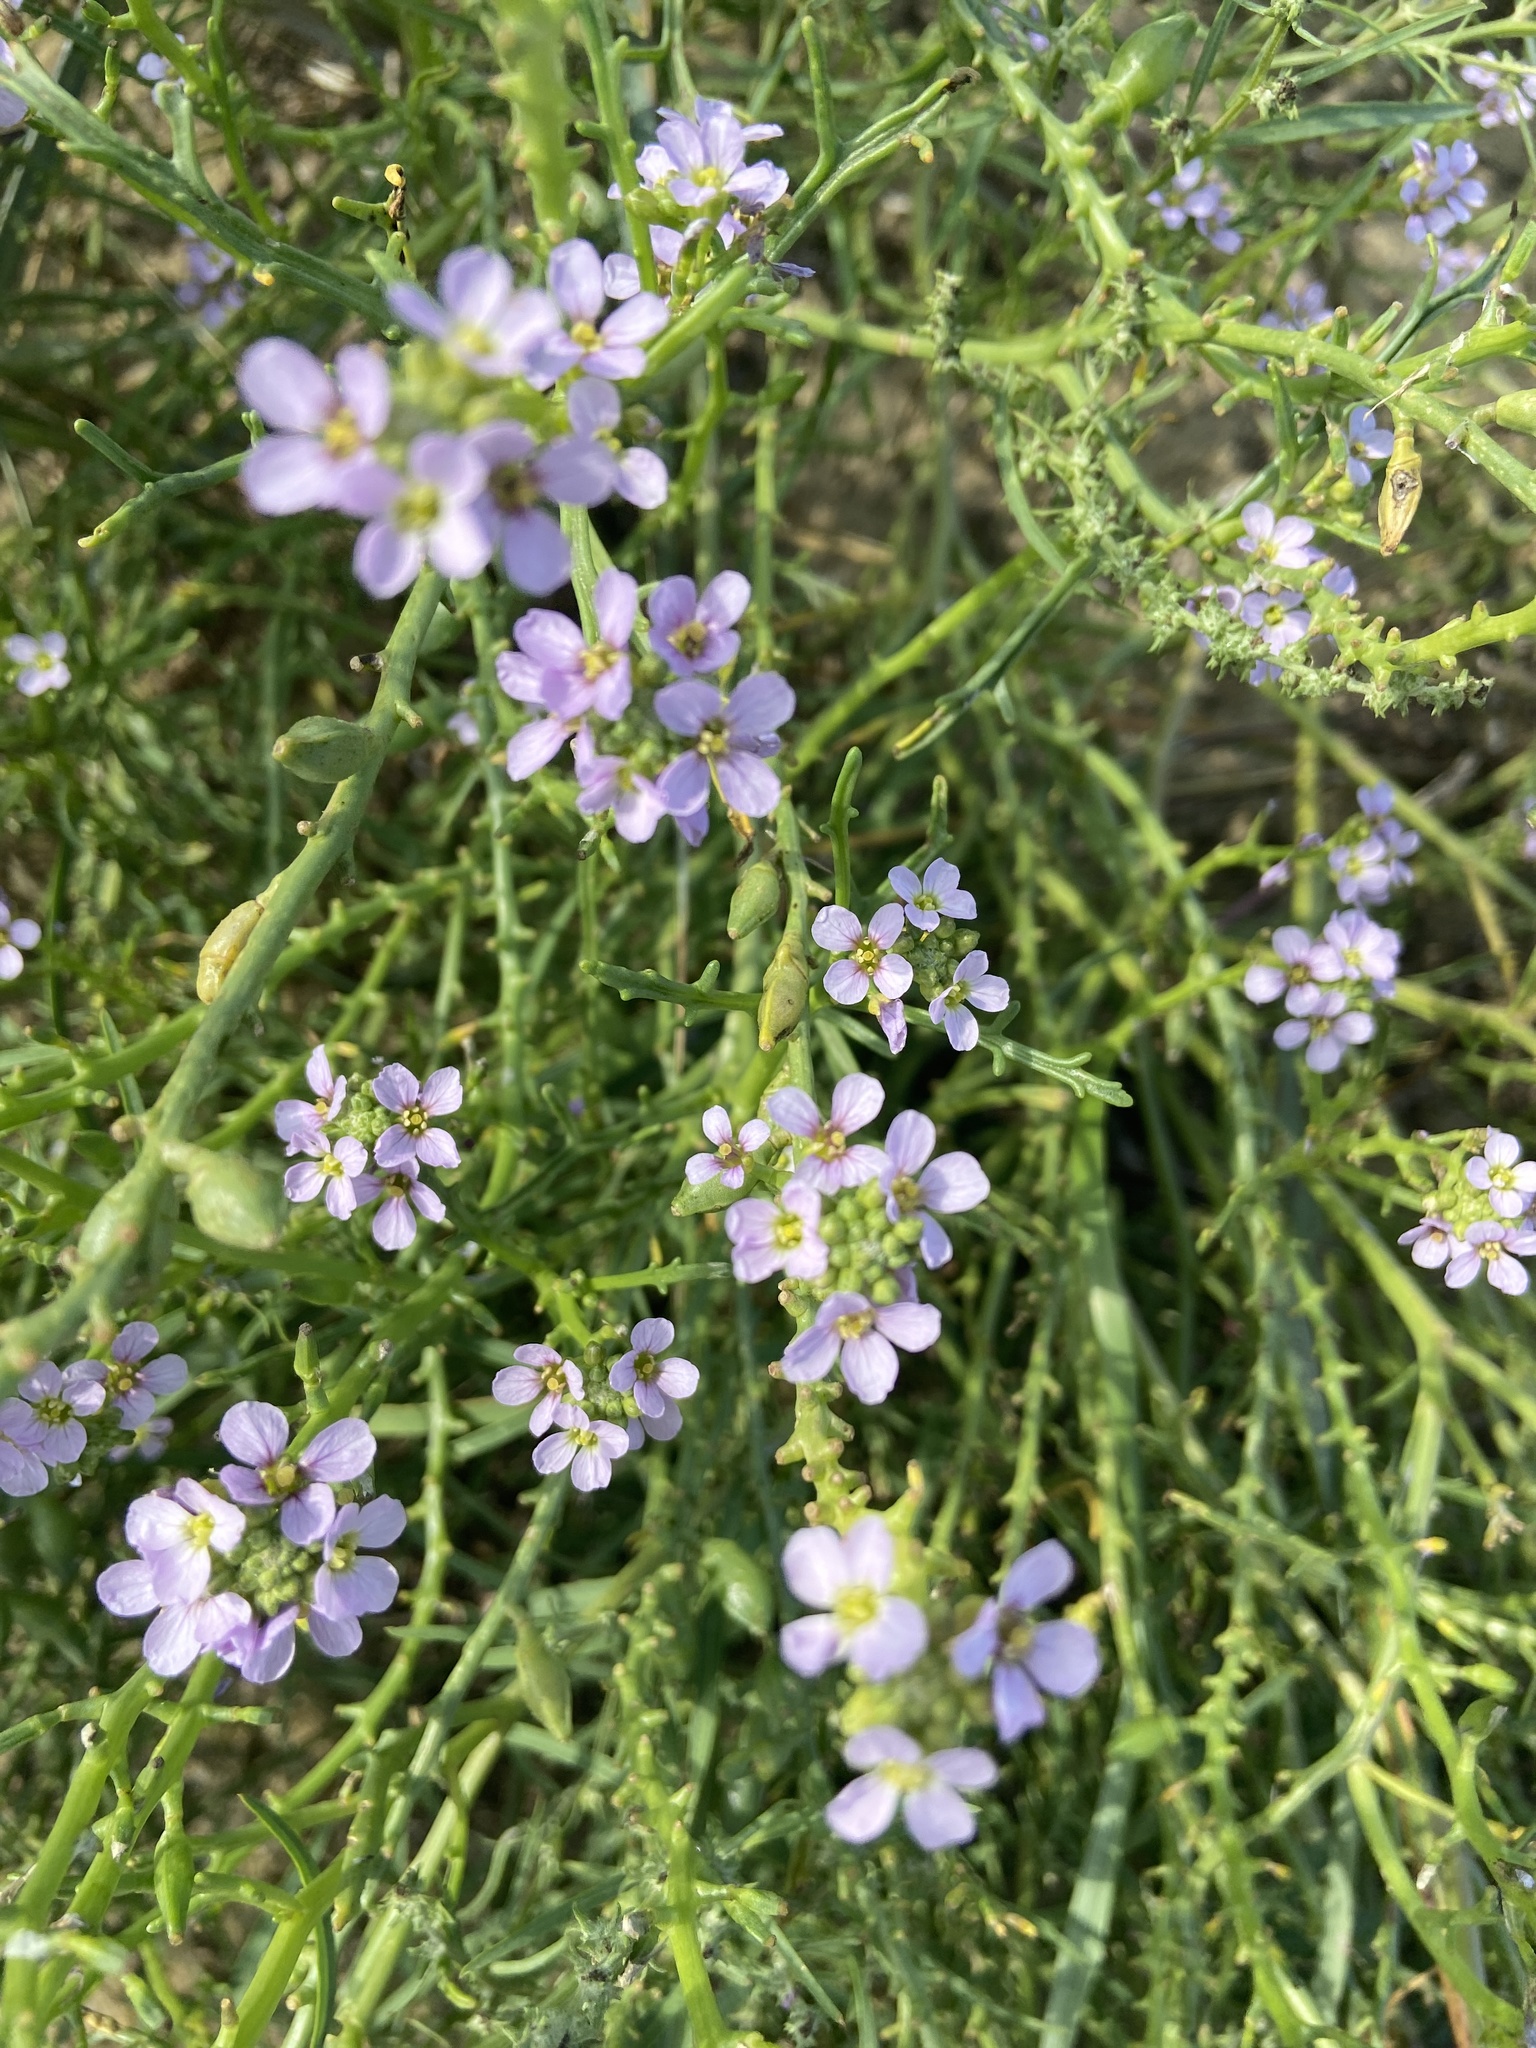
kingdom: Plantae
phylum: Tracheophyta
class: Magnoliopsida
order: Brassicales
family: Brassicaceae
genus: Cakile
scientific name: Cakile maritima
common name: Sea rocket
